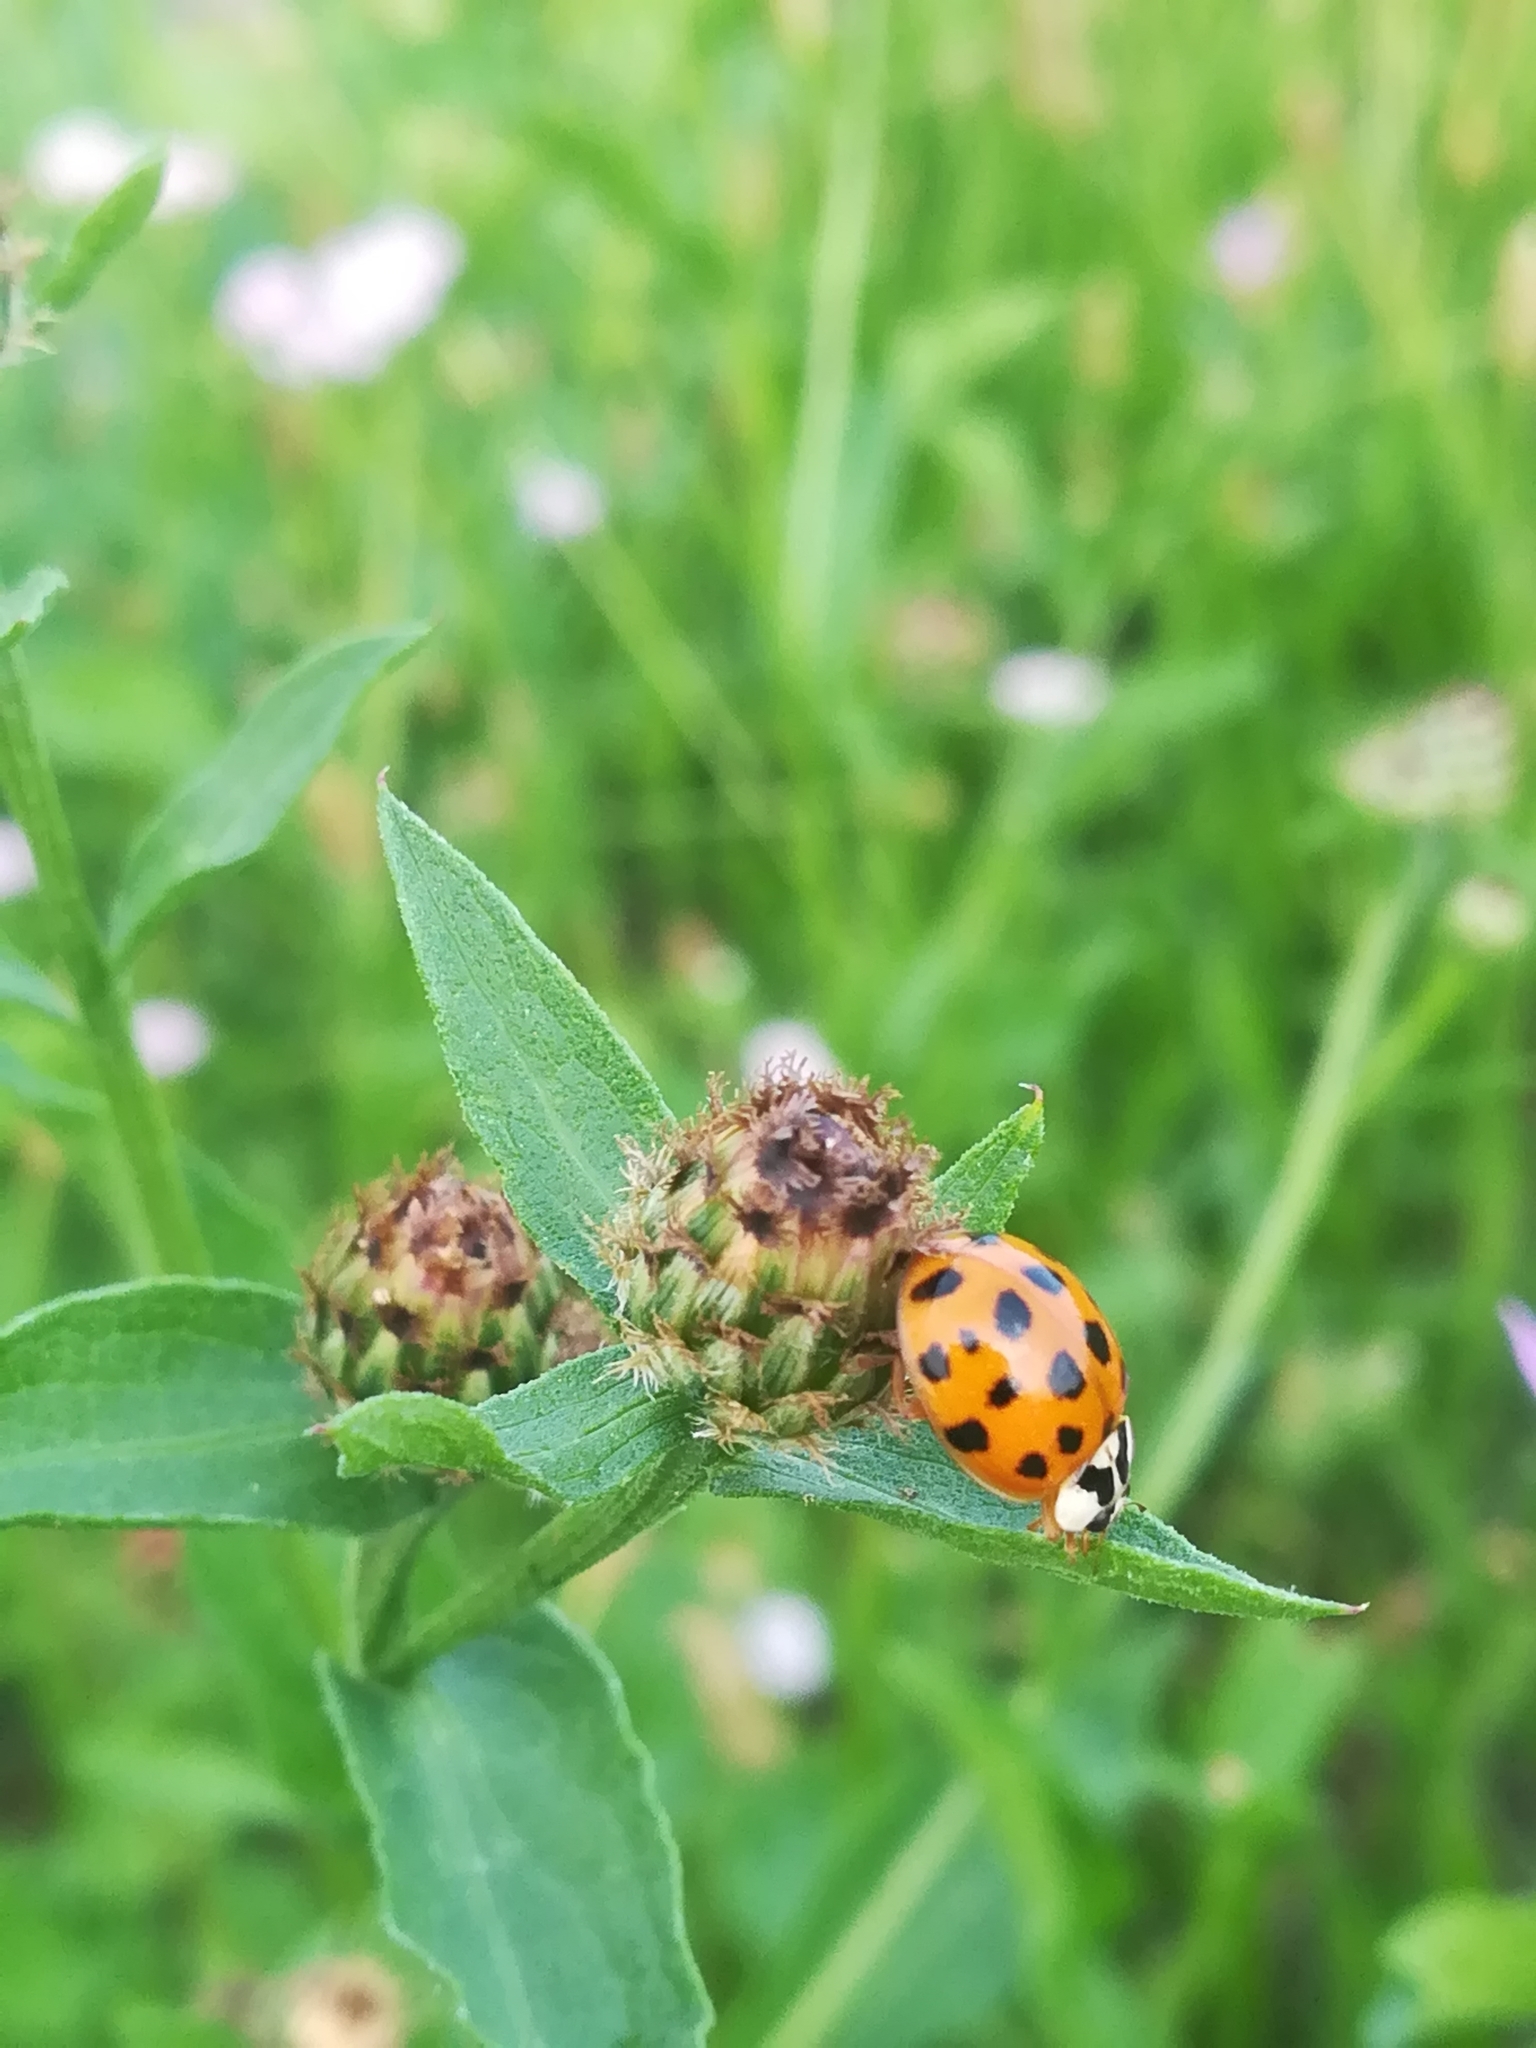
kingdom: Animalia
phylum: Arthropoda
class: Insecta
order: Coleoptera
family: Coccinellidae
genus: Harmonia
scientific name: Harmonia axyridis
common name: Harlequin ladybird
